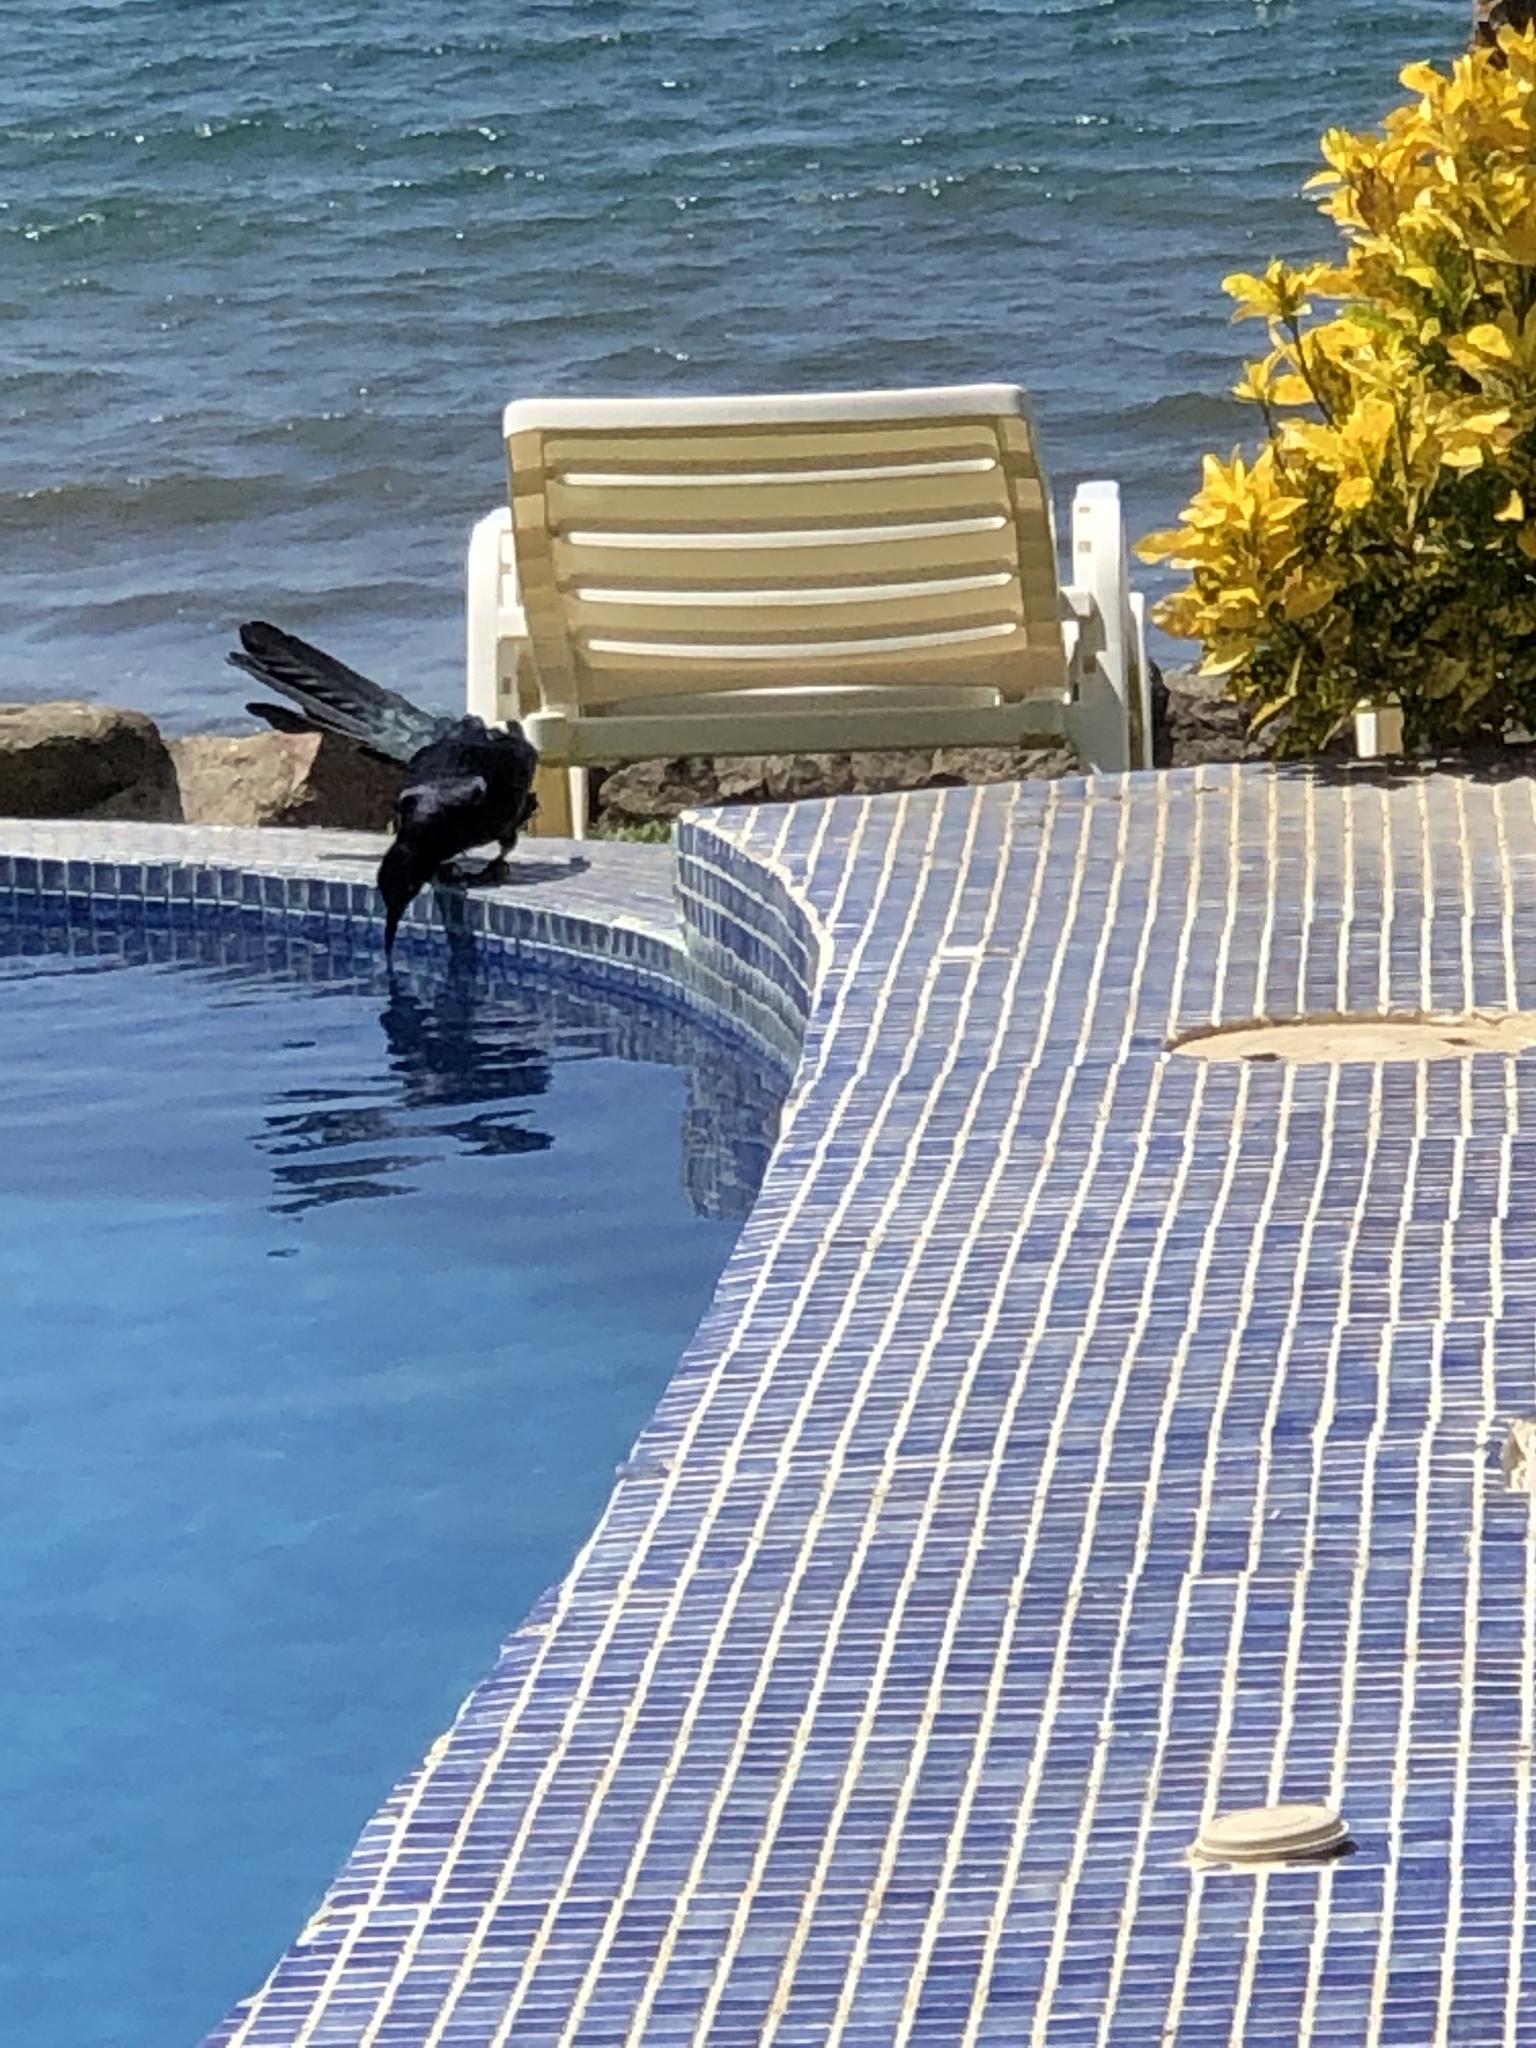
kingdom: Animalia
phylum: Chordata
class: Aves
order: Passeriformes
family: Icteridae
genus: Quiscalus
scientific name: Quiscalus mexicanus
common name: Great-tailed grackle
